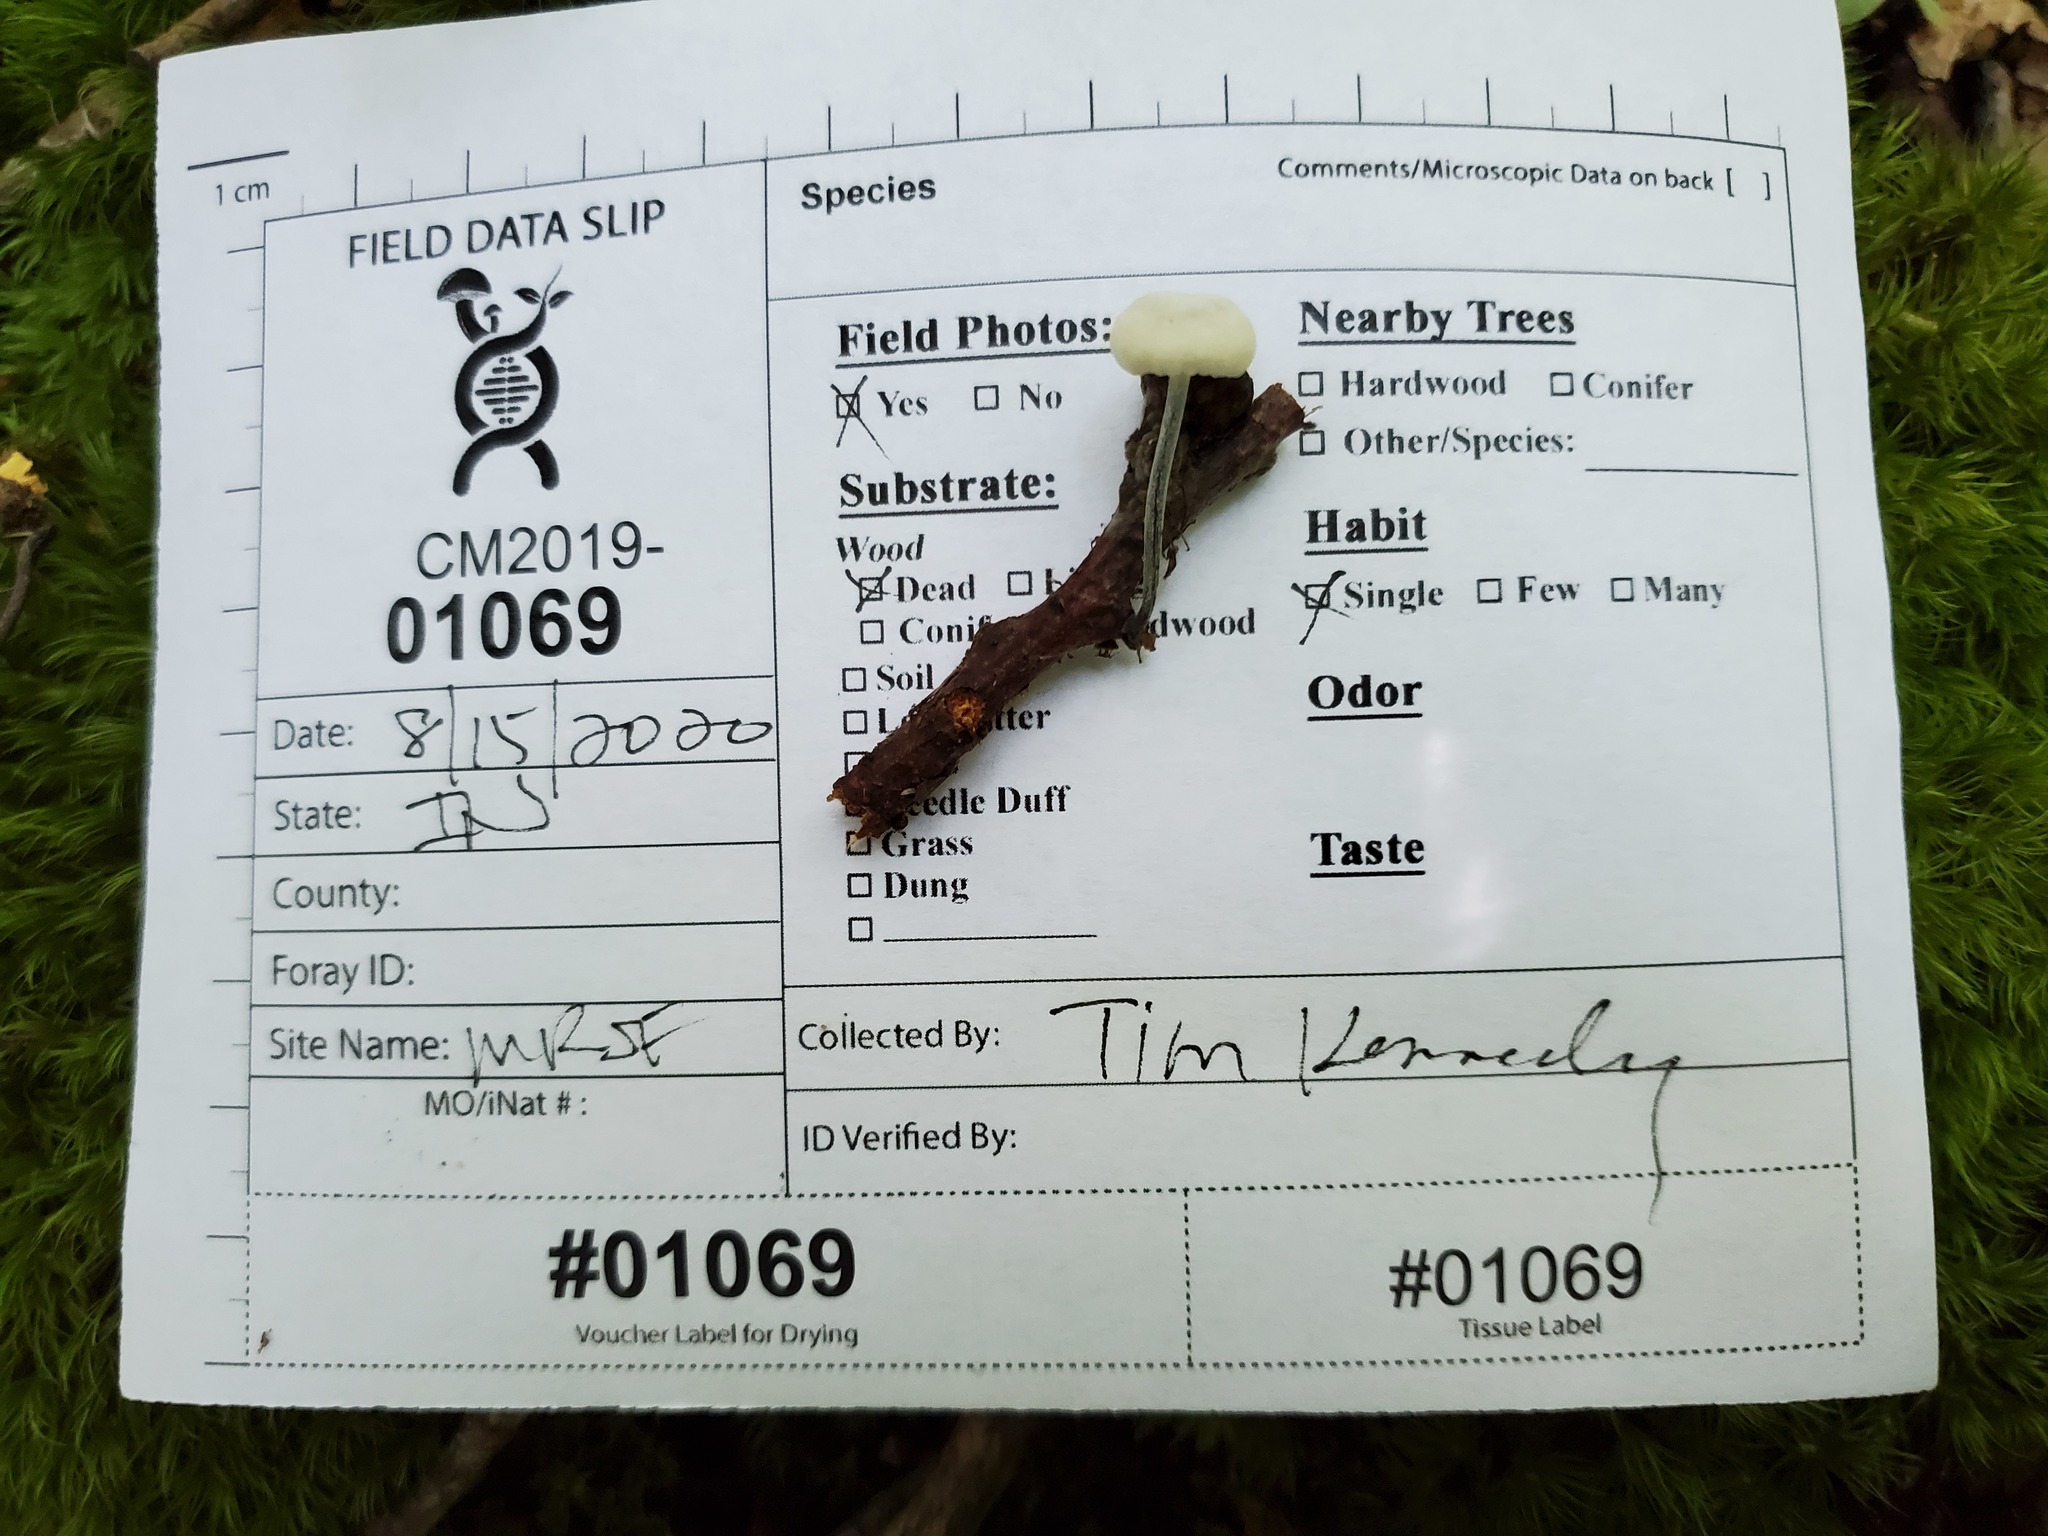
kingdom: Fungi
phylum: Basidiomycota
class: Agaricomycetes
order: Agaricales
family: Marasmiaceae
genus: Tetrapyrgos
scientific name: Tetrapyrgos nigripes
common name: Black-stalked marasmius
